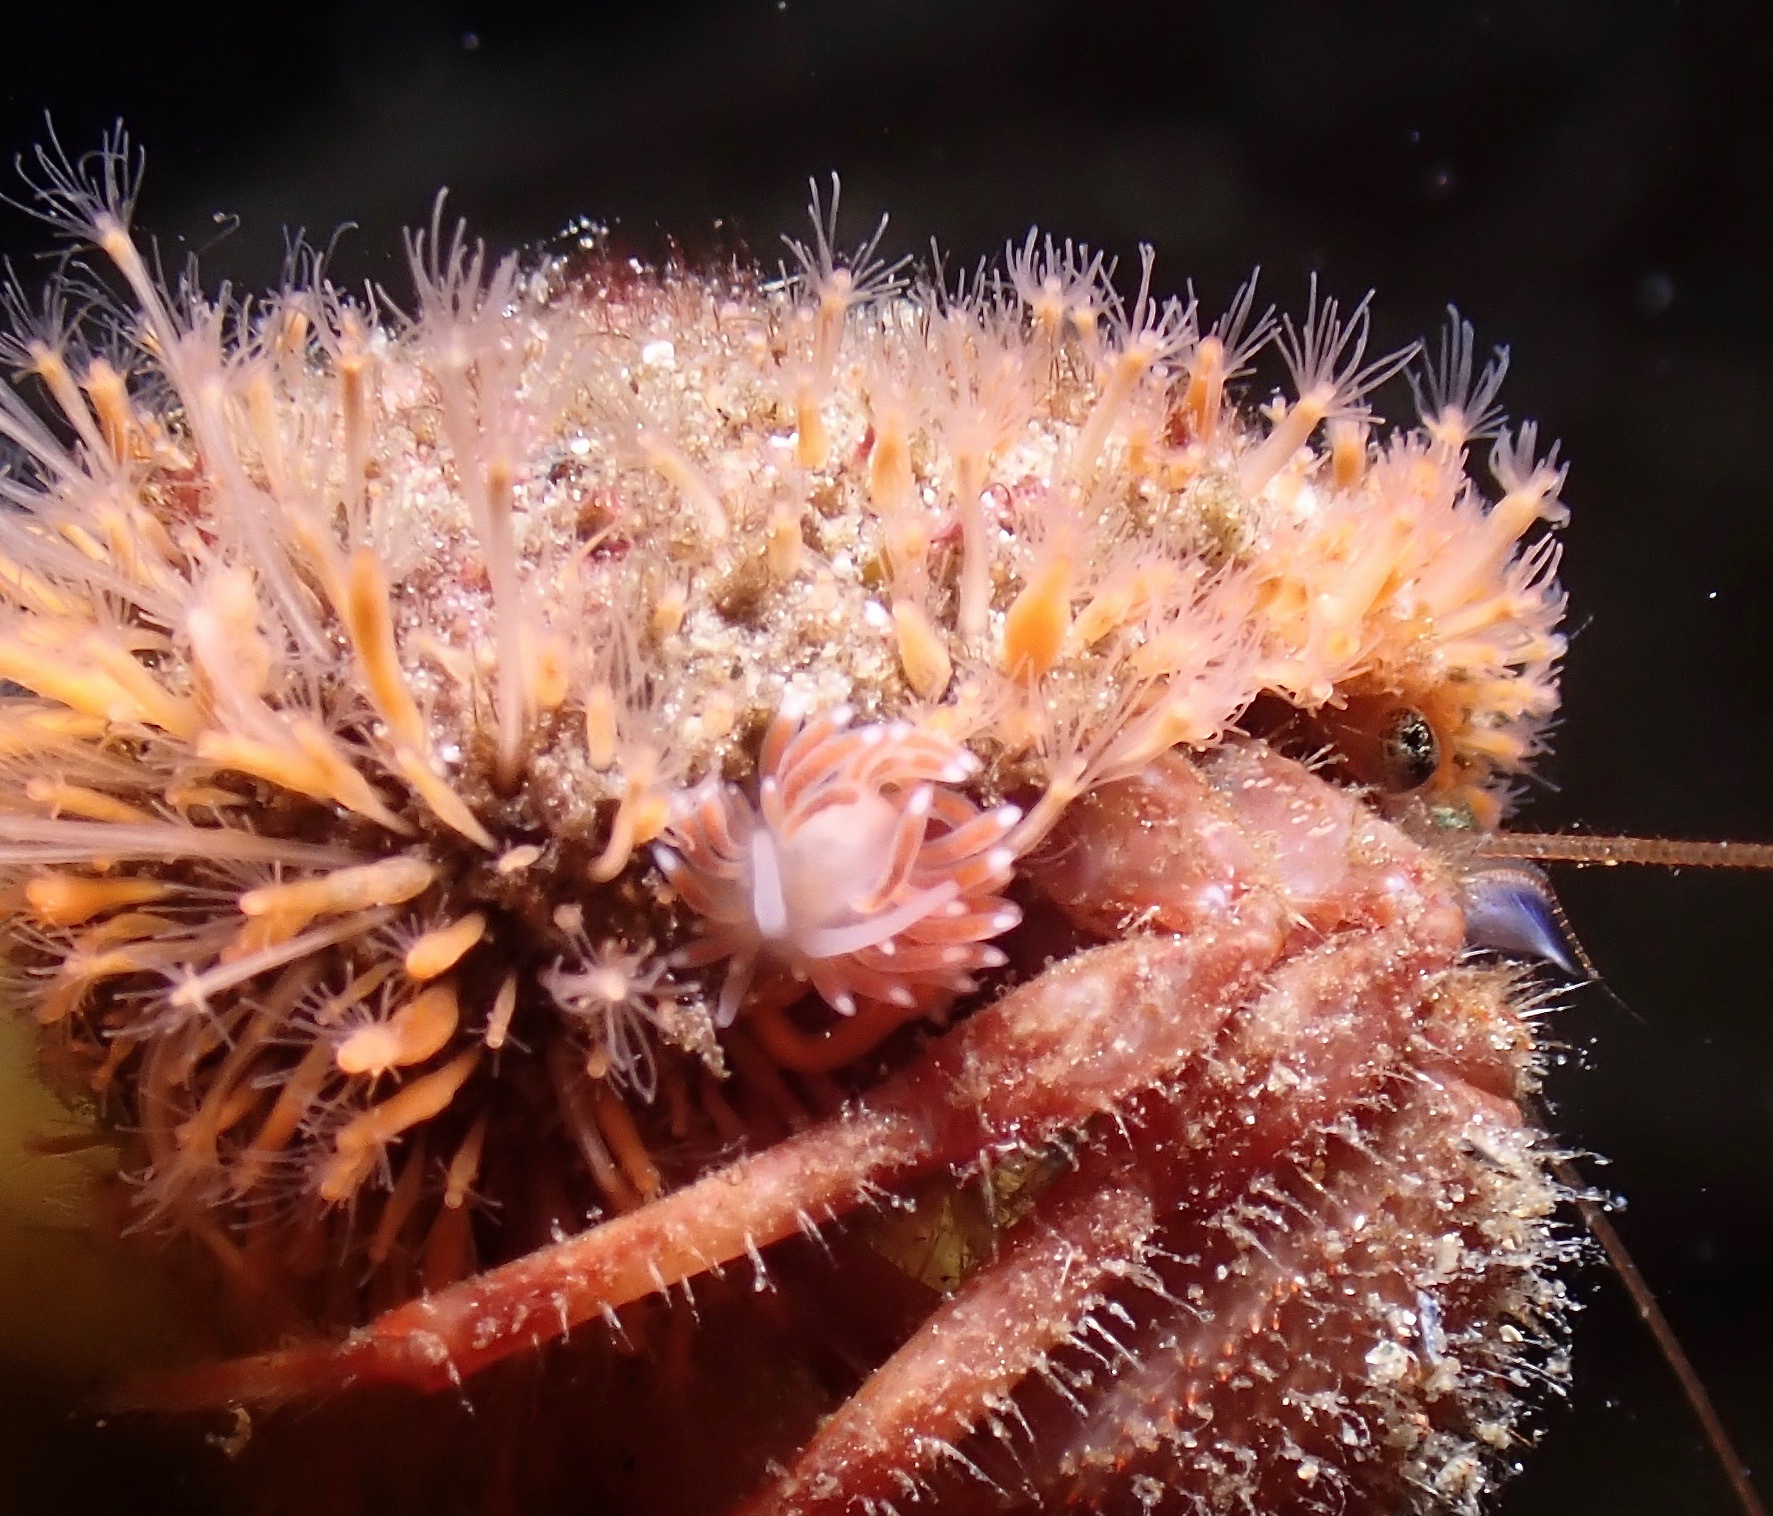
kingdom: Animalia
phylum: Mollusca
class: Gastropoda
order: Nudibranchia
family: Cuthonidae
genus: Cuthona
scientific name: Cuthona nana
